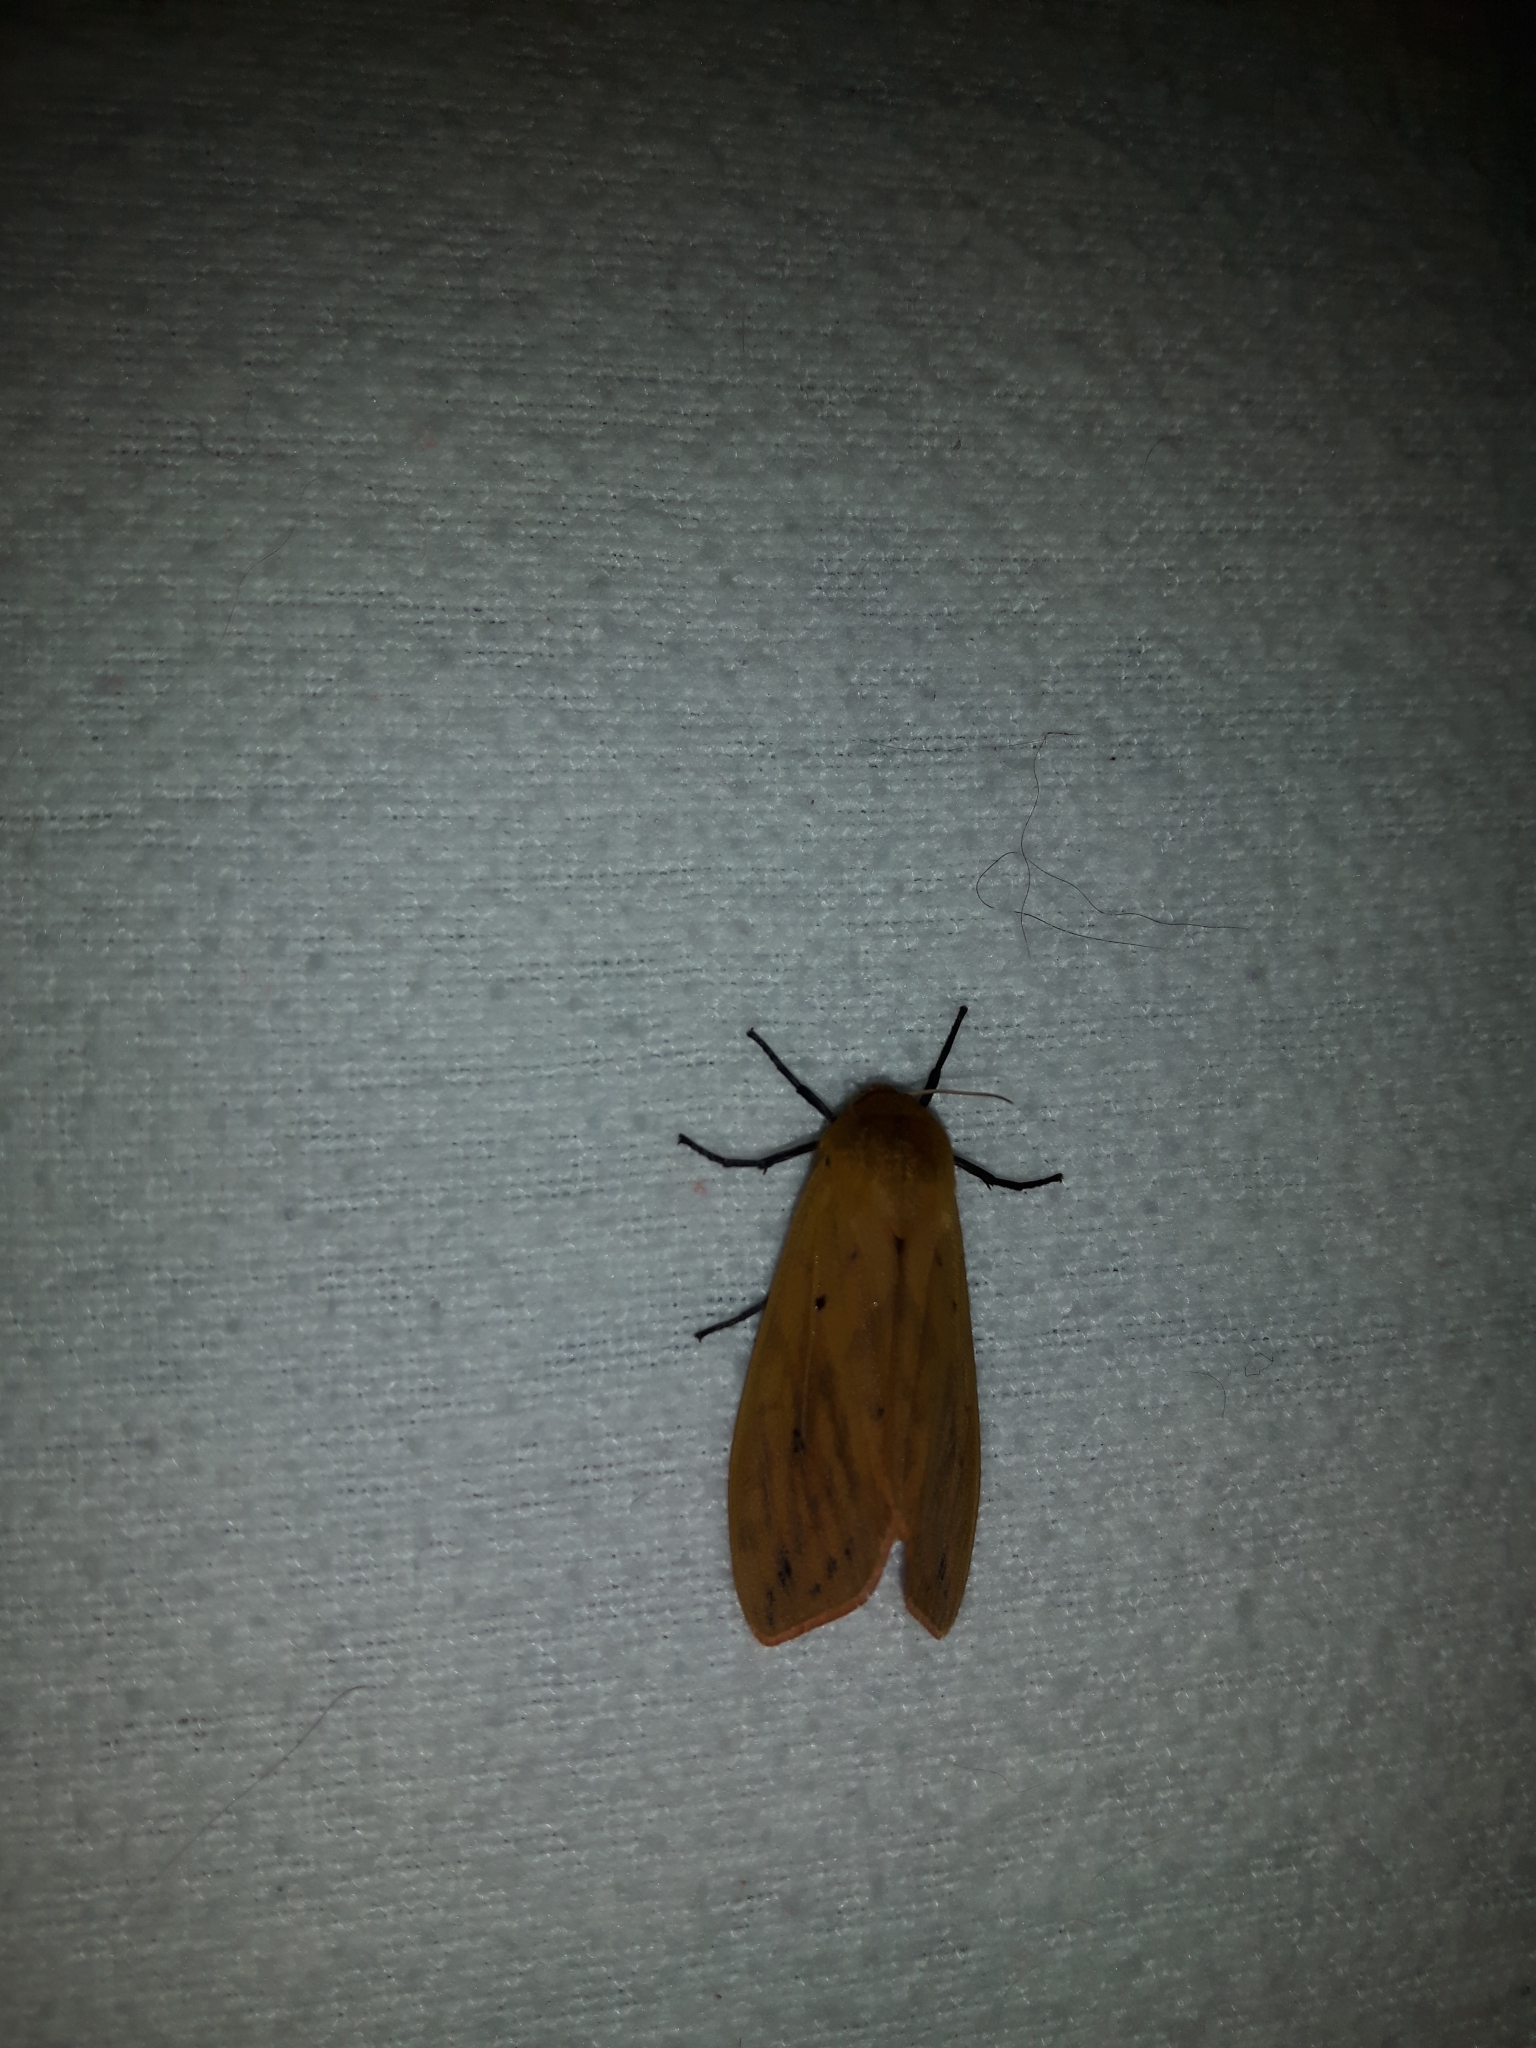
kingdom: Animalia
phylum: Arthropoda
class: Insecta
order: Lepidoptera
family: Erebidae
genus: Pyrrharctia
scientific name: Pyrrharctia isabella
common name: Isabella tiger moth
